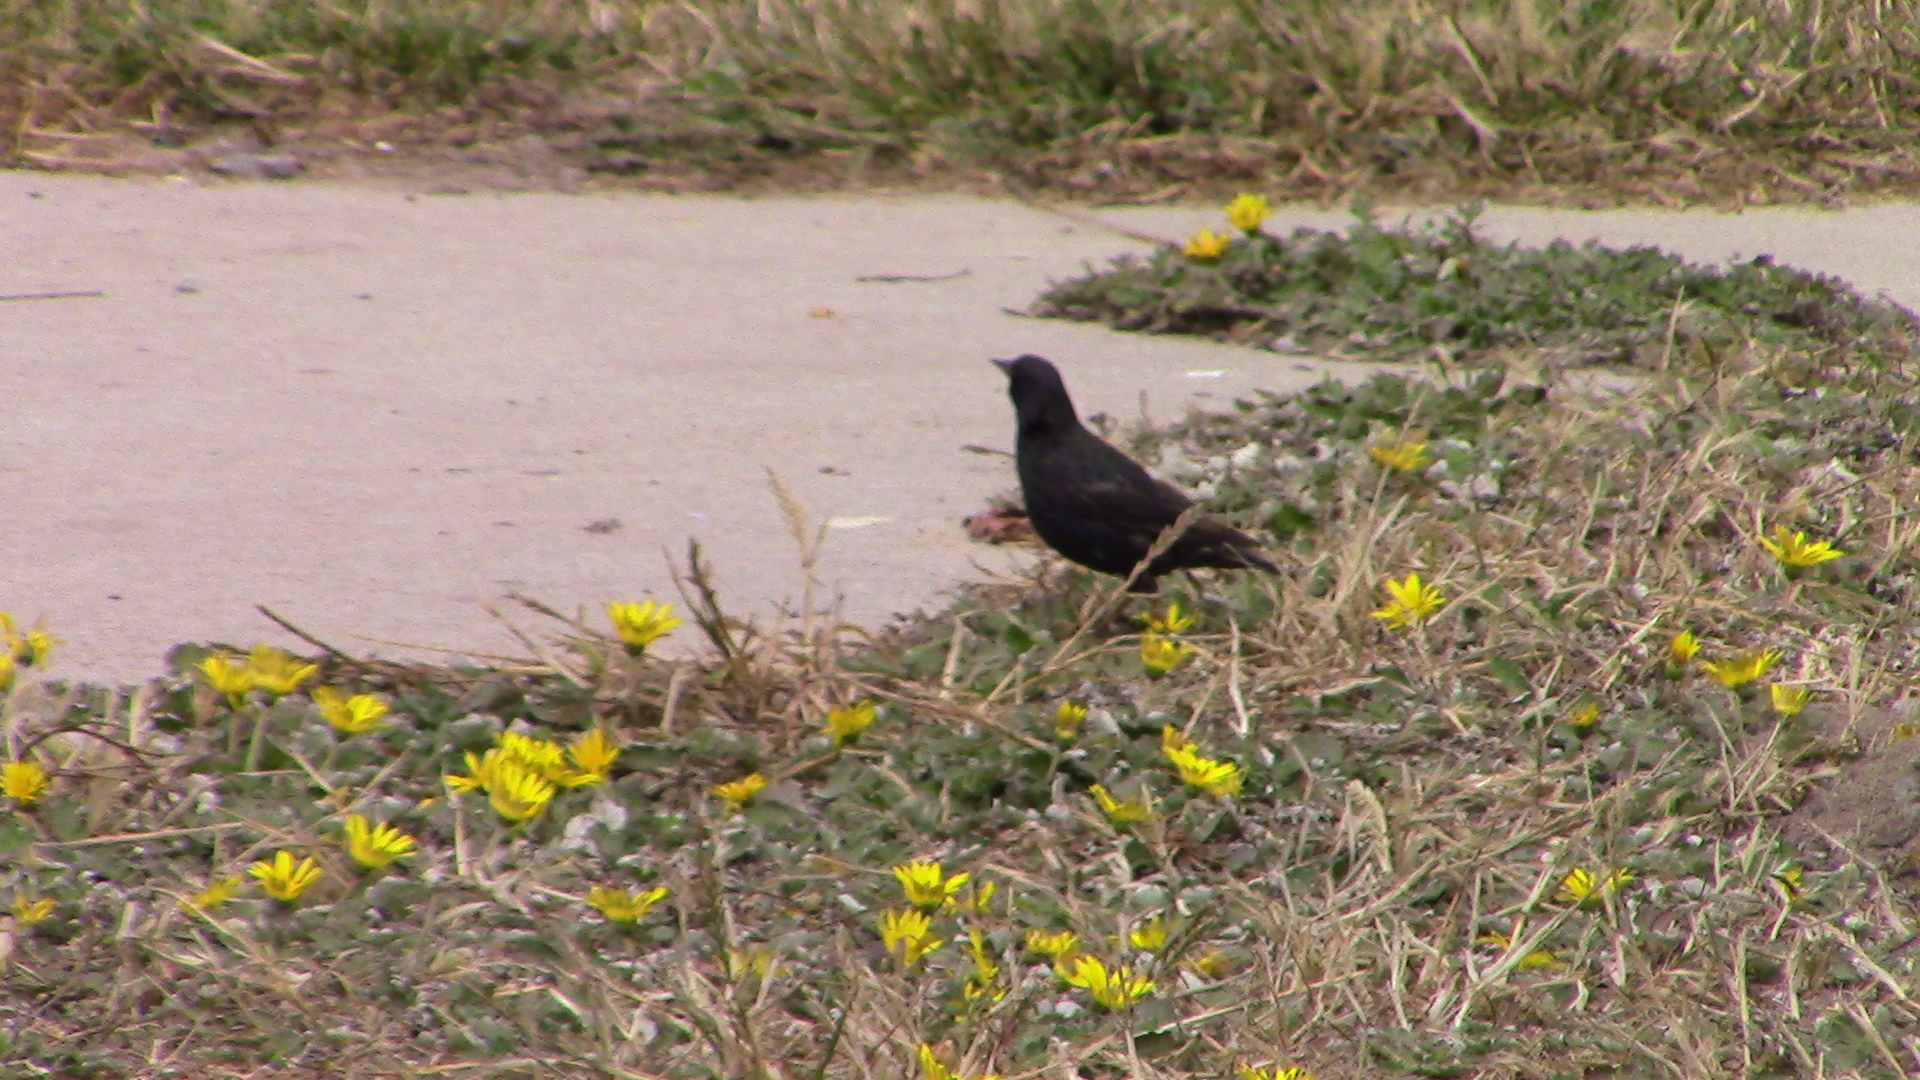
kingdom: Animalia
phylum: Chordata
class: Aves
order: Passeriformes
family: Sturnidae
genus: Sturnus
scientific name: Sturnus vulgaris
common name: Common starling
